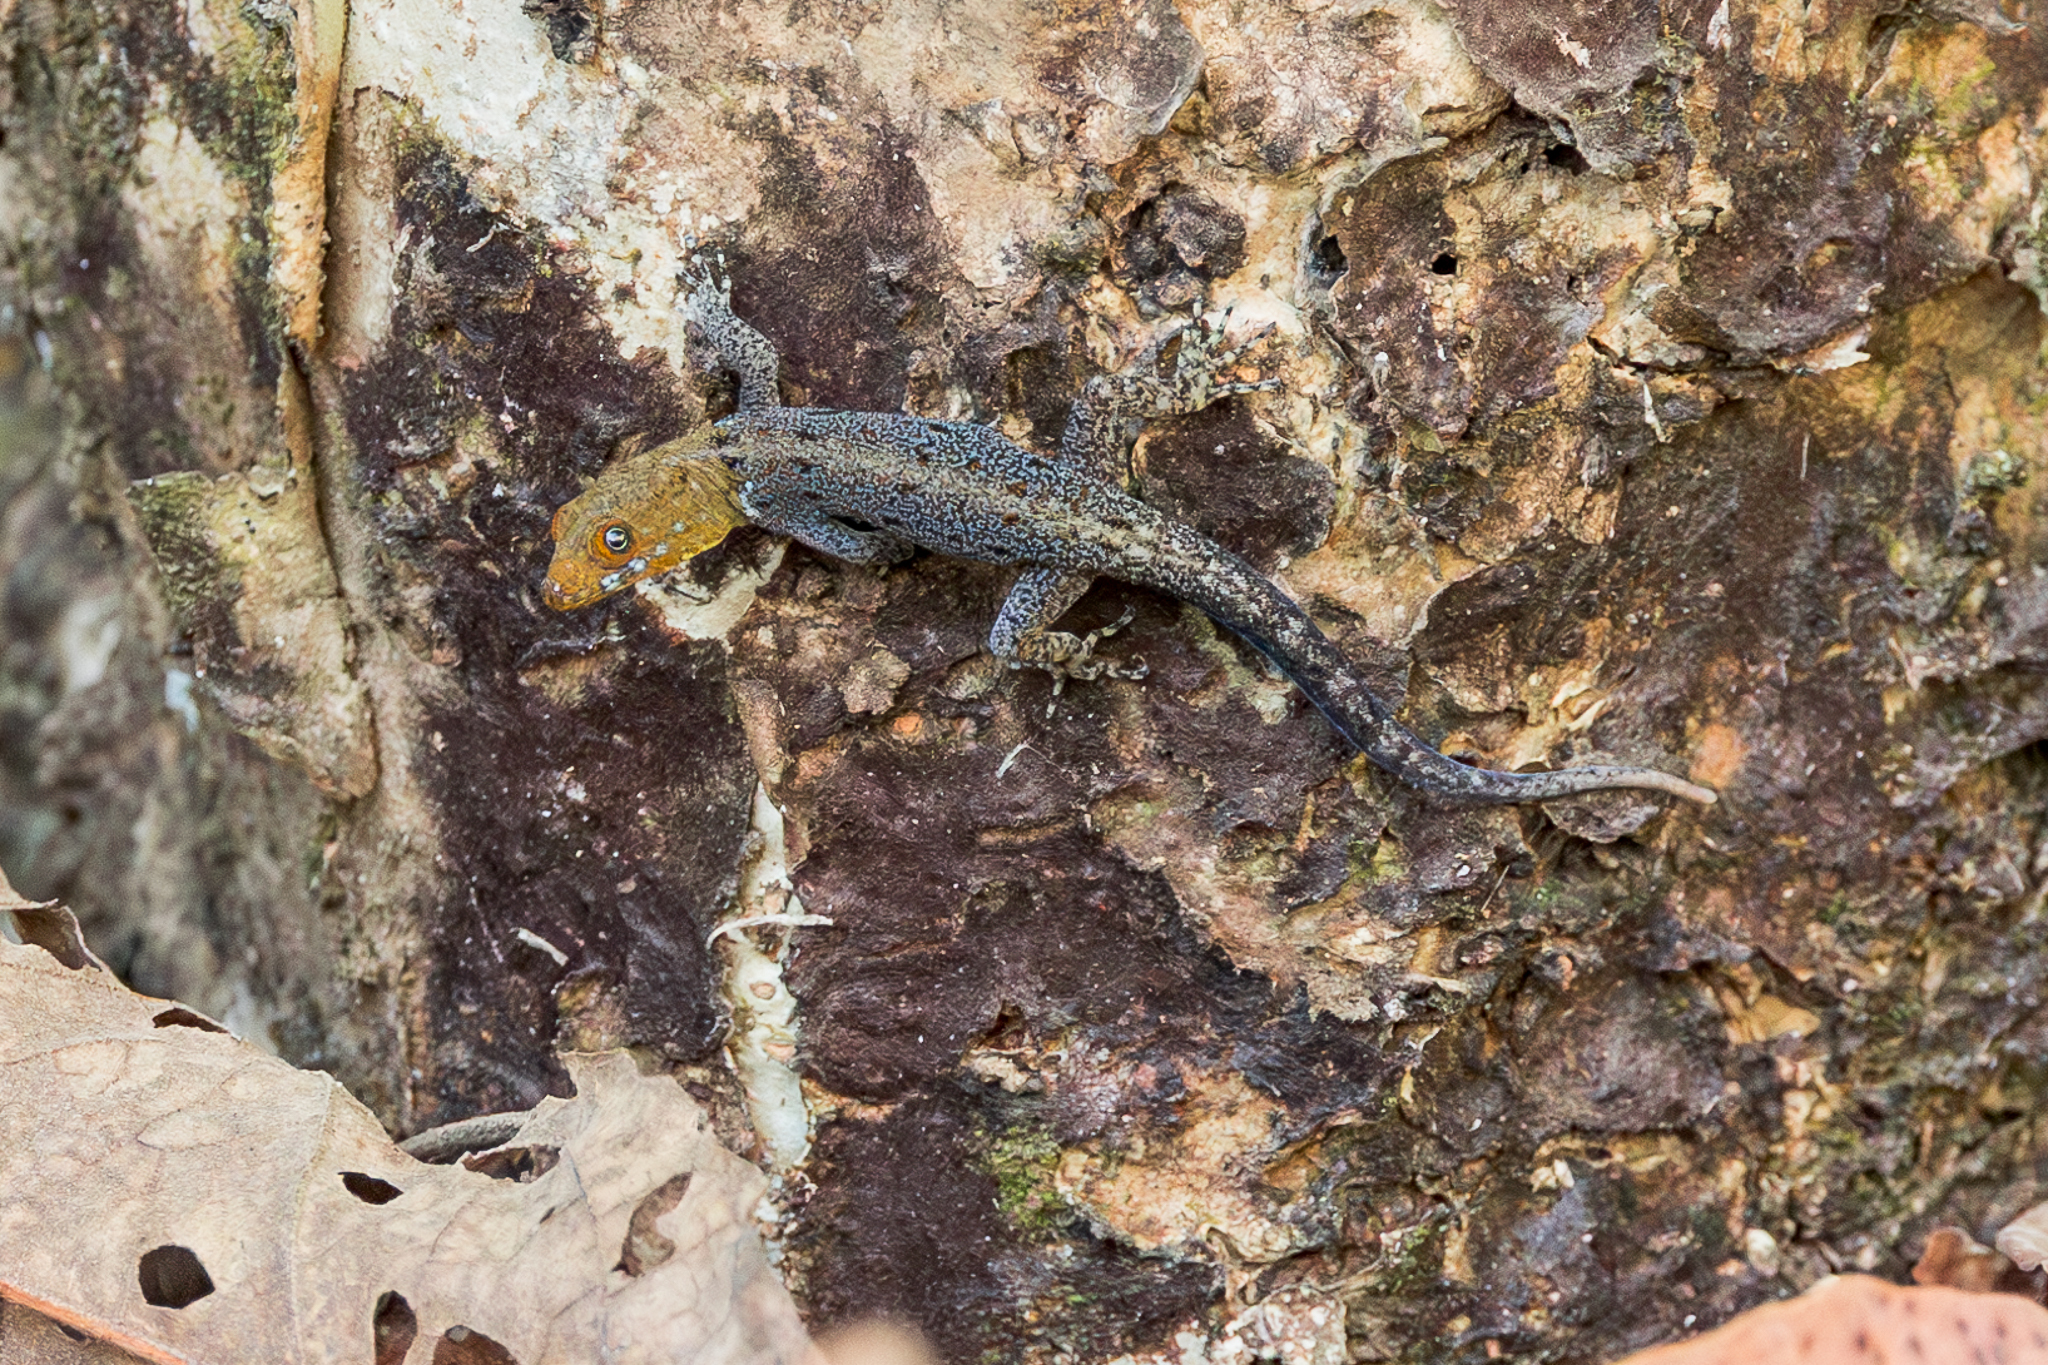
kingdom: Animalia
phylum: Chordata
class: Squamata
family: Sphaerodactylidae
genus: Gonatodes
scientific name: Gonatodes albogularis
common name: Yellow-headed gecko
